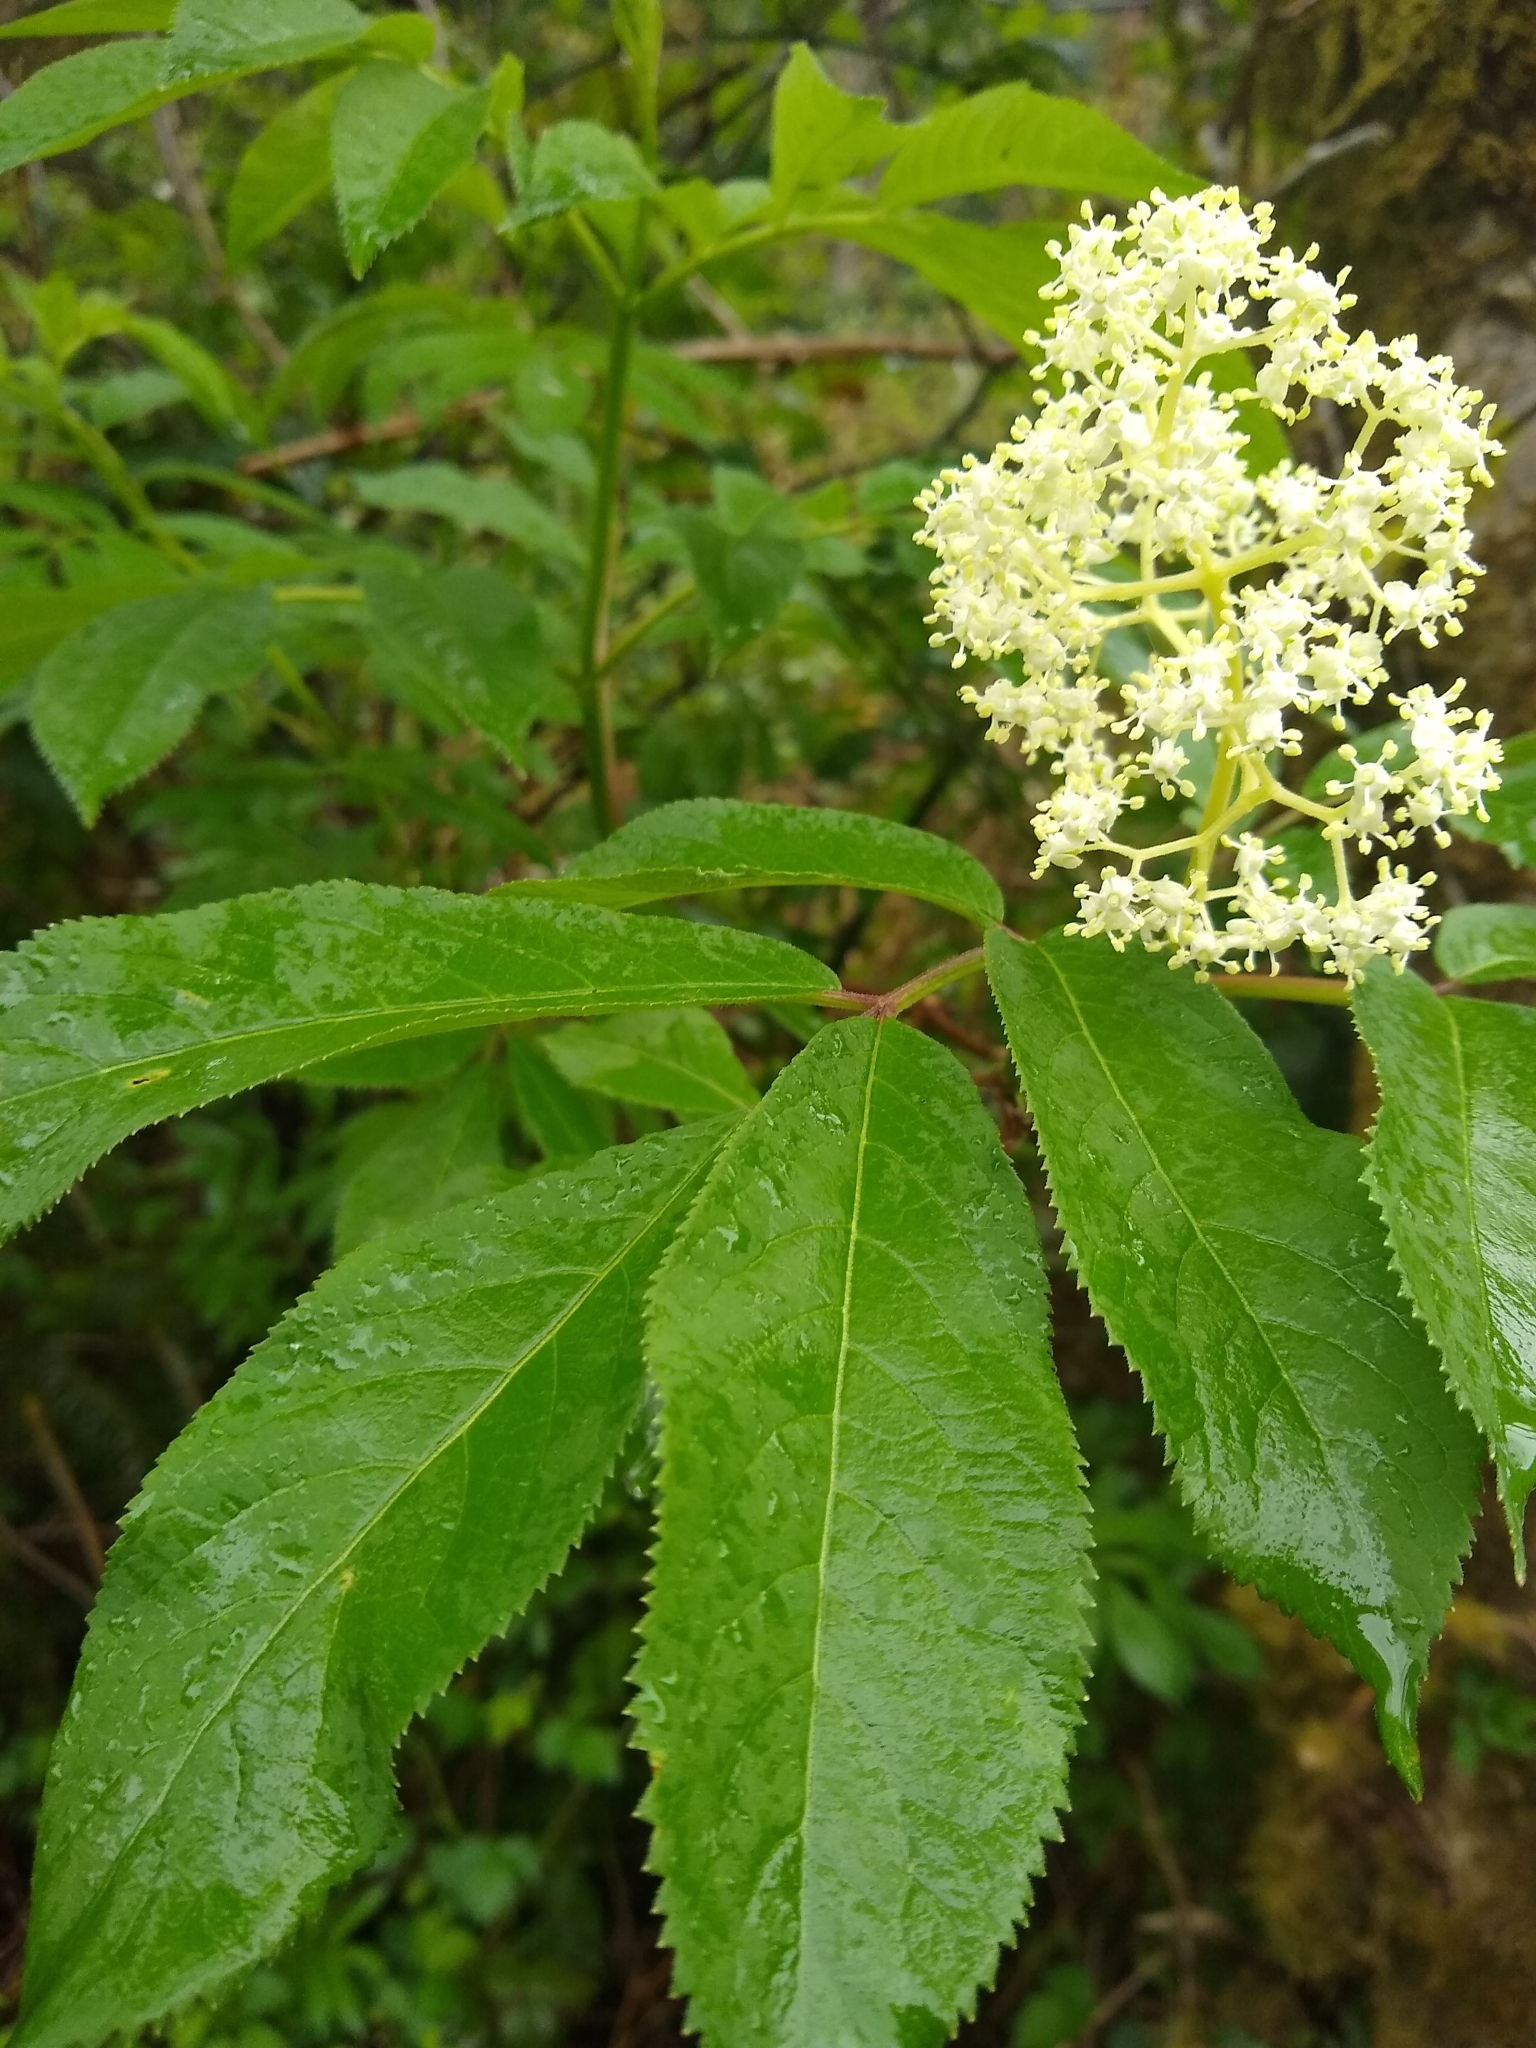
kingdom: Plantae
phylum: Tracheophyta
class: Magnoliopsida
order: Dipsacales
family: Viburnaceae
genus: Sambucus
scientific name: Sambucus racemosa
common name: Red-berried elder
